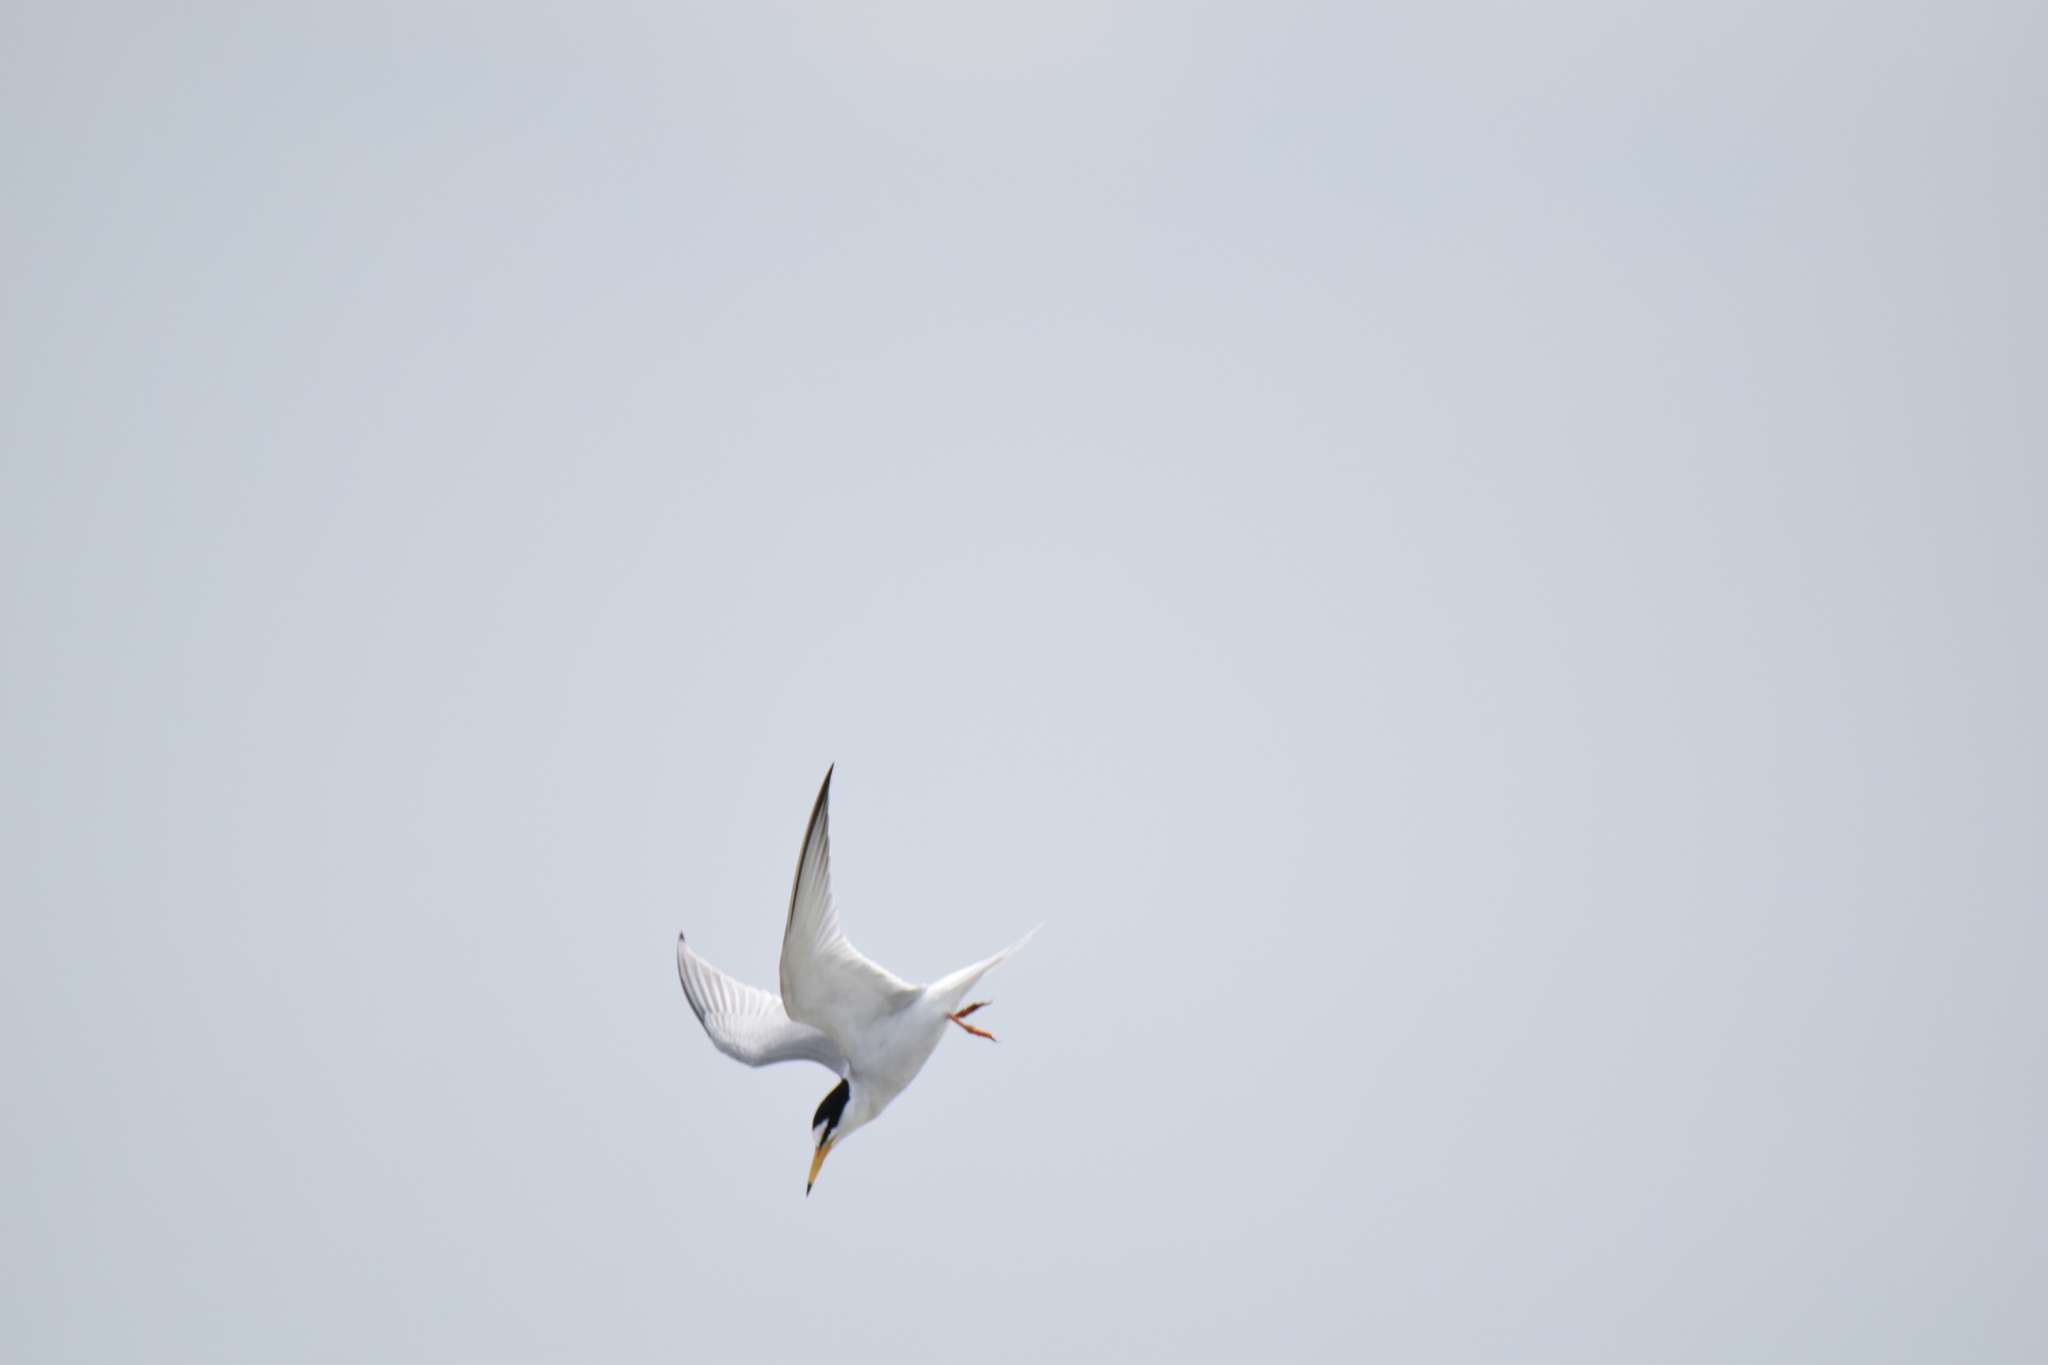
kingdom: Animalia
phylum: Chordata
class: Aves
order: Charadriiformes
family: Laridae
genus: Sternula
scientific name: Sternula albifrons
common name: Little tern
